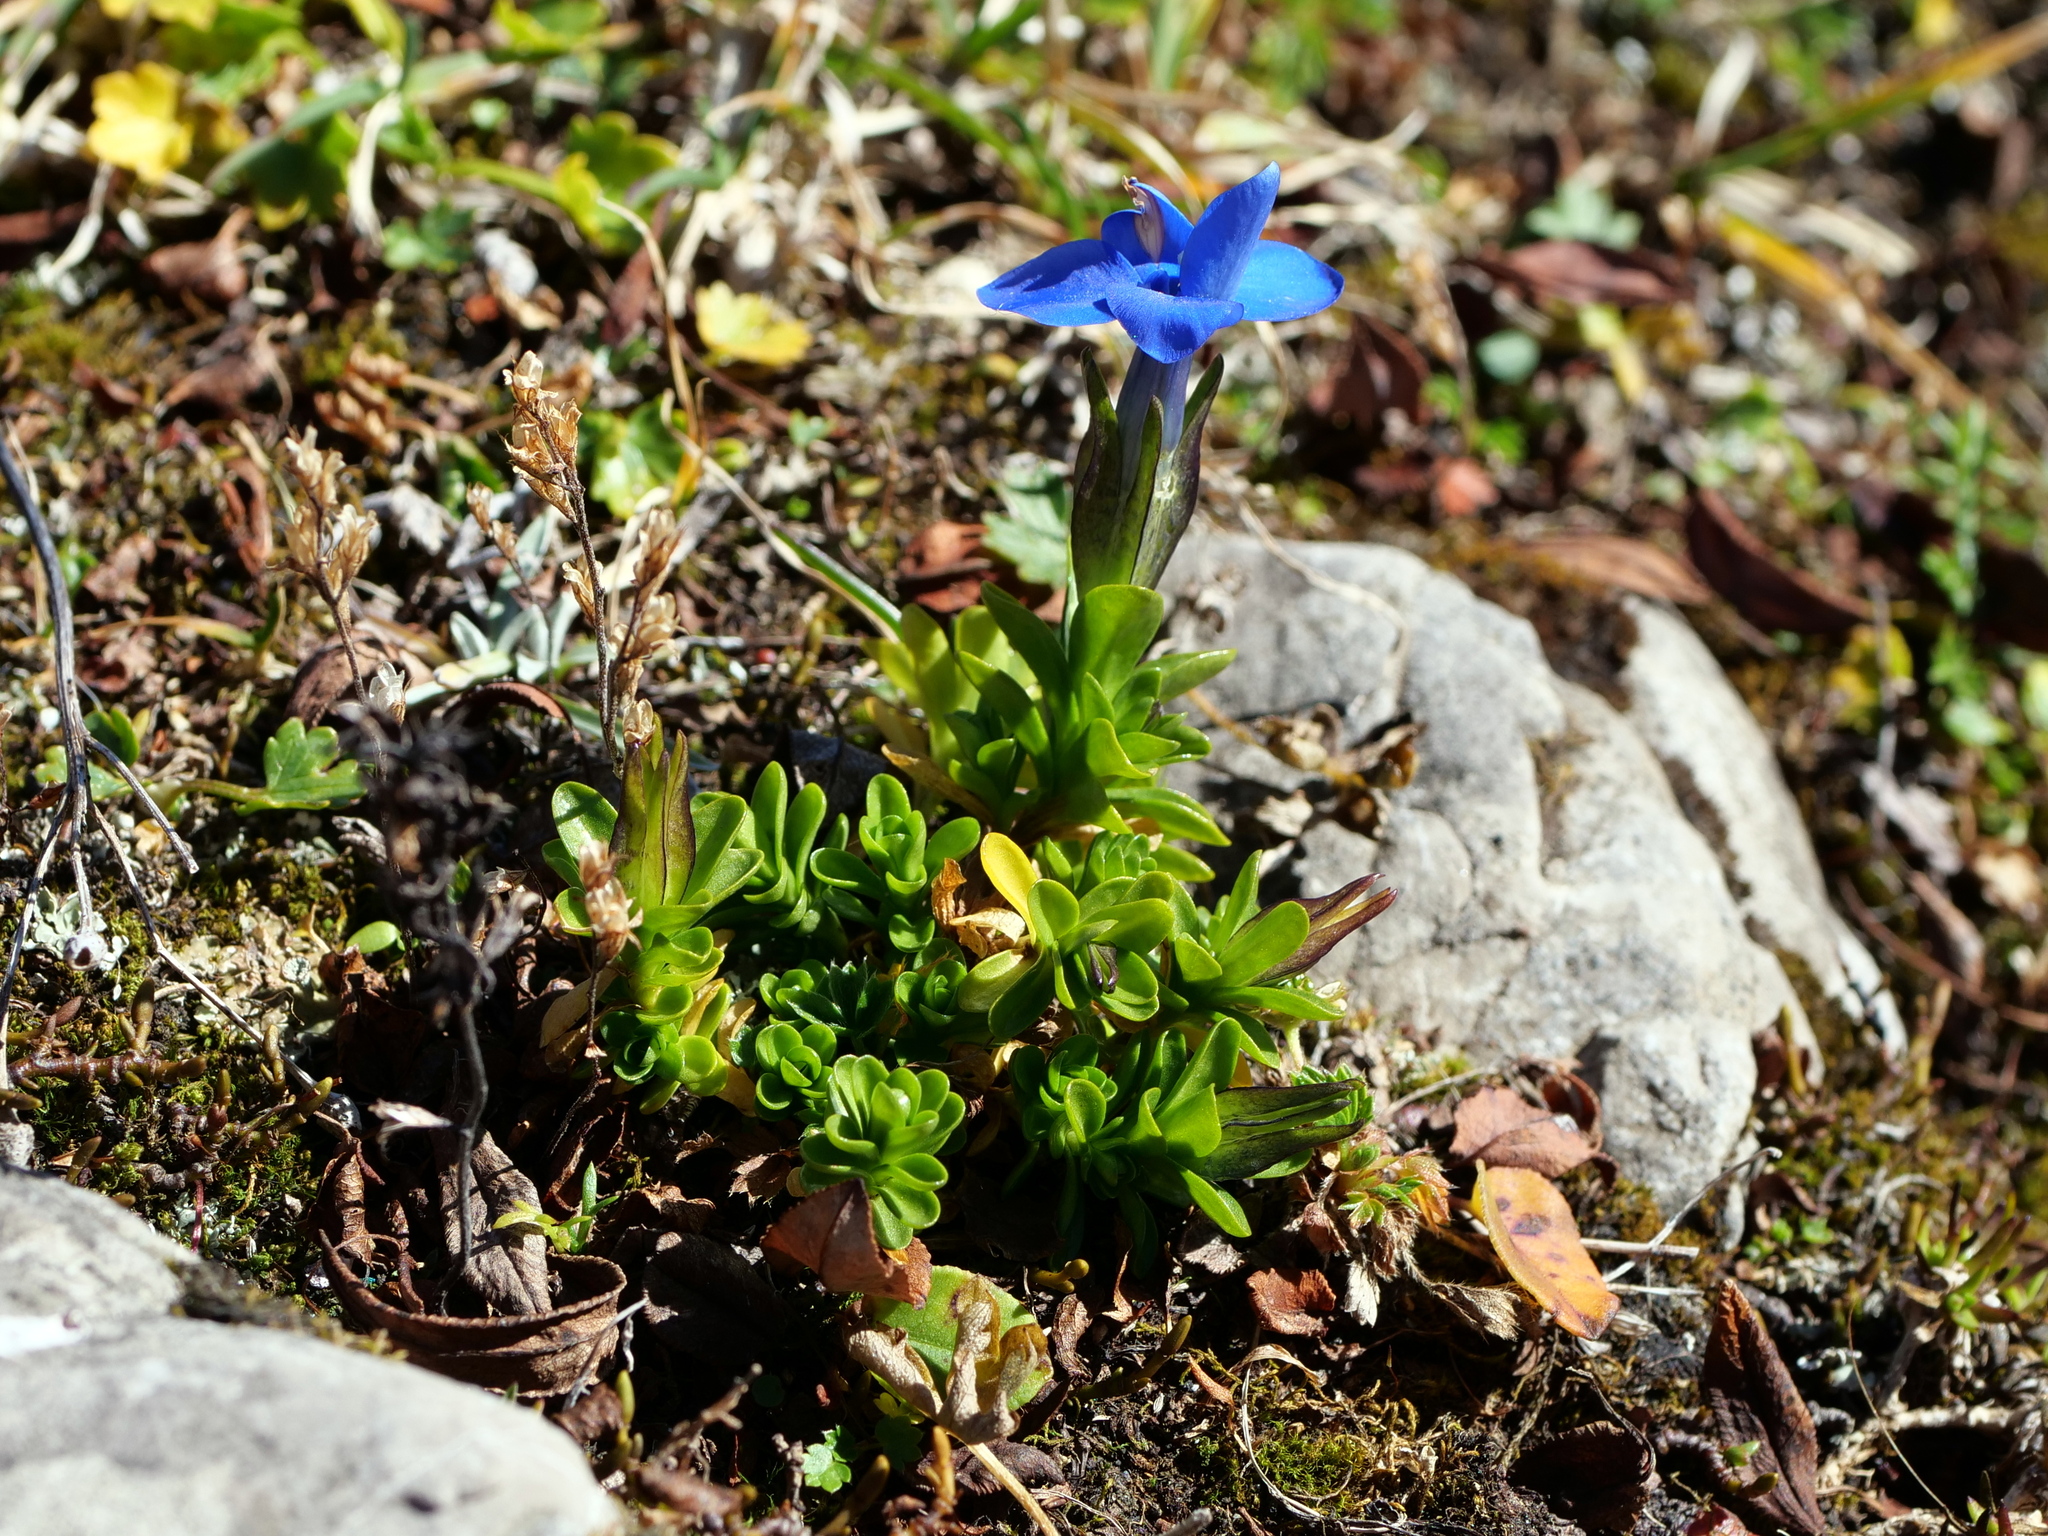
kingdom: Plantae
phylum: Tracheophyta
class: Magnoliopsida
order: Gentianales
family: Gentianaceae
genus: Gentiana
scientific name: Gentiana bavarica
